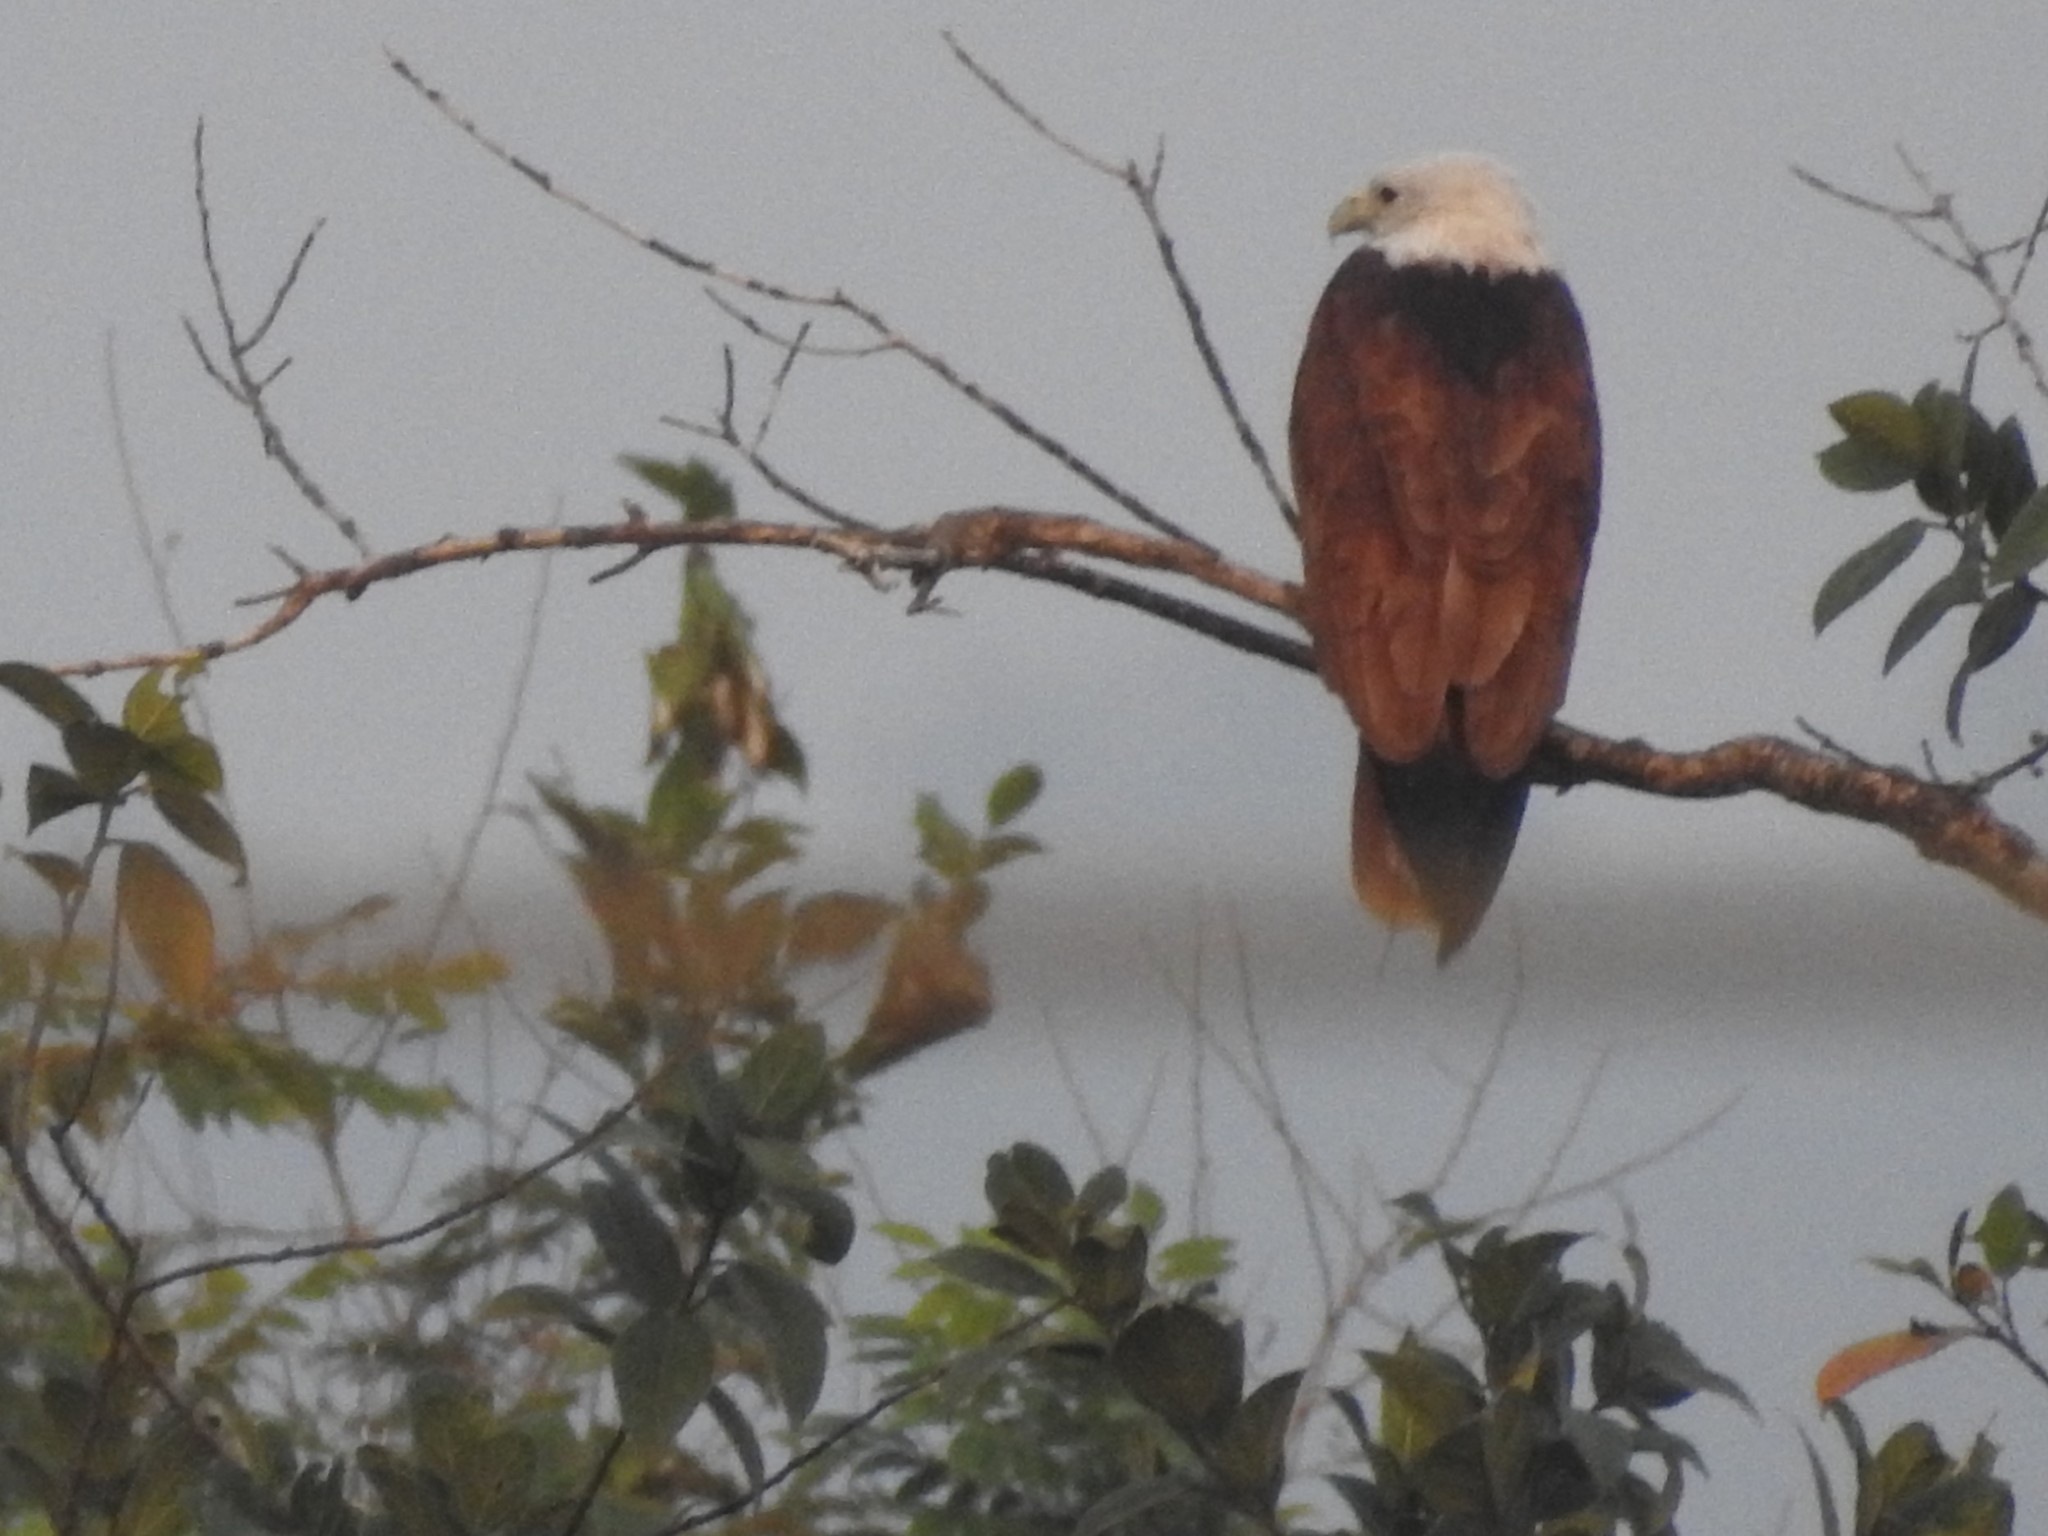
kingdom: Animalia
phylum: Chordata
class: Aves
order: Accipitriformes
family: Accipitridae
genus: Haliastur
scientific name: Haliastur indus
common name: Brahminy kite
